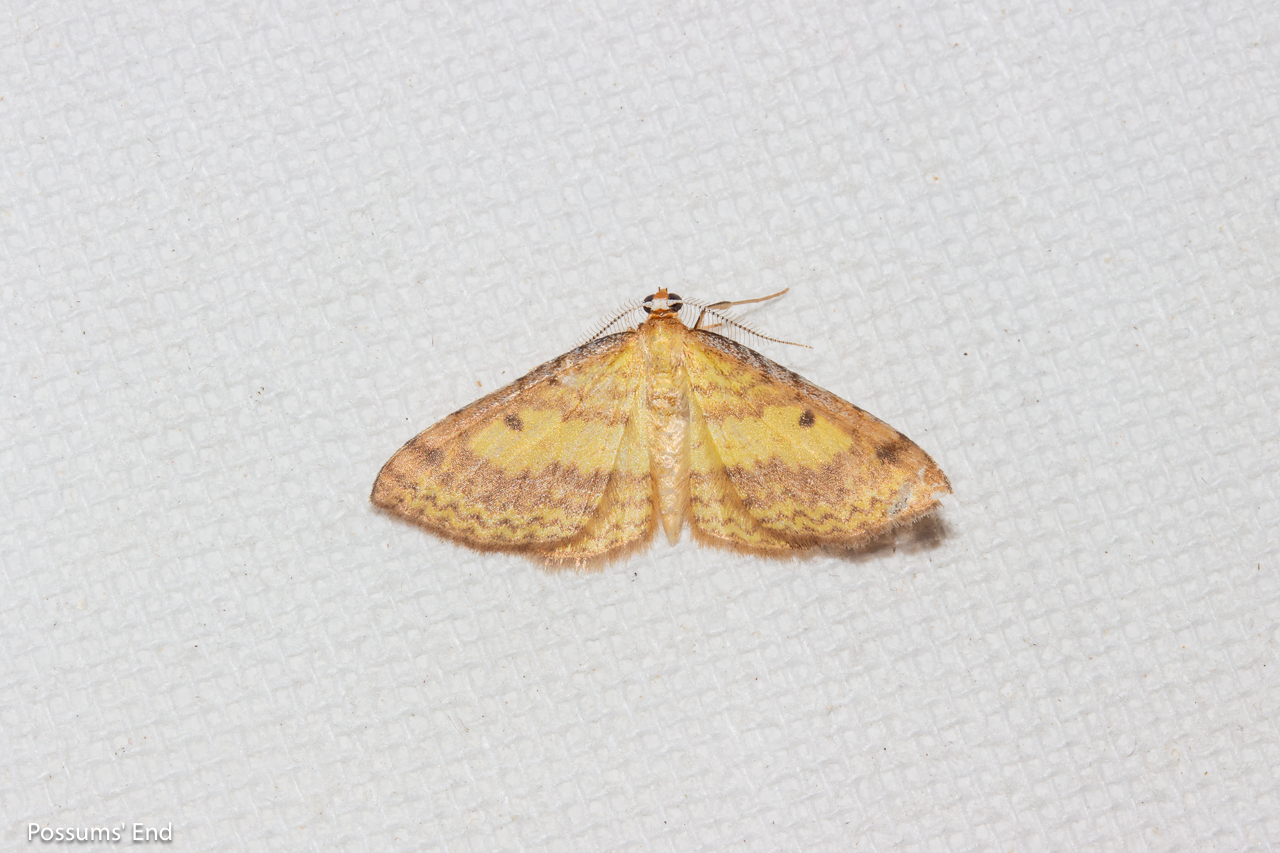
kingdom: Animalia
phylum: Arthropoda
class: Insecta
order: Lepidoptera
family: Geometridae
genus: Epiphryne
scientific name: Epiphryne undosata
